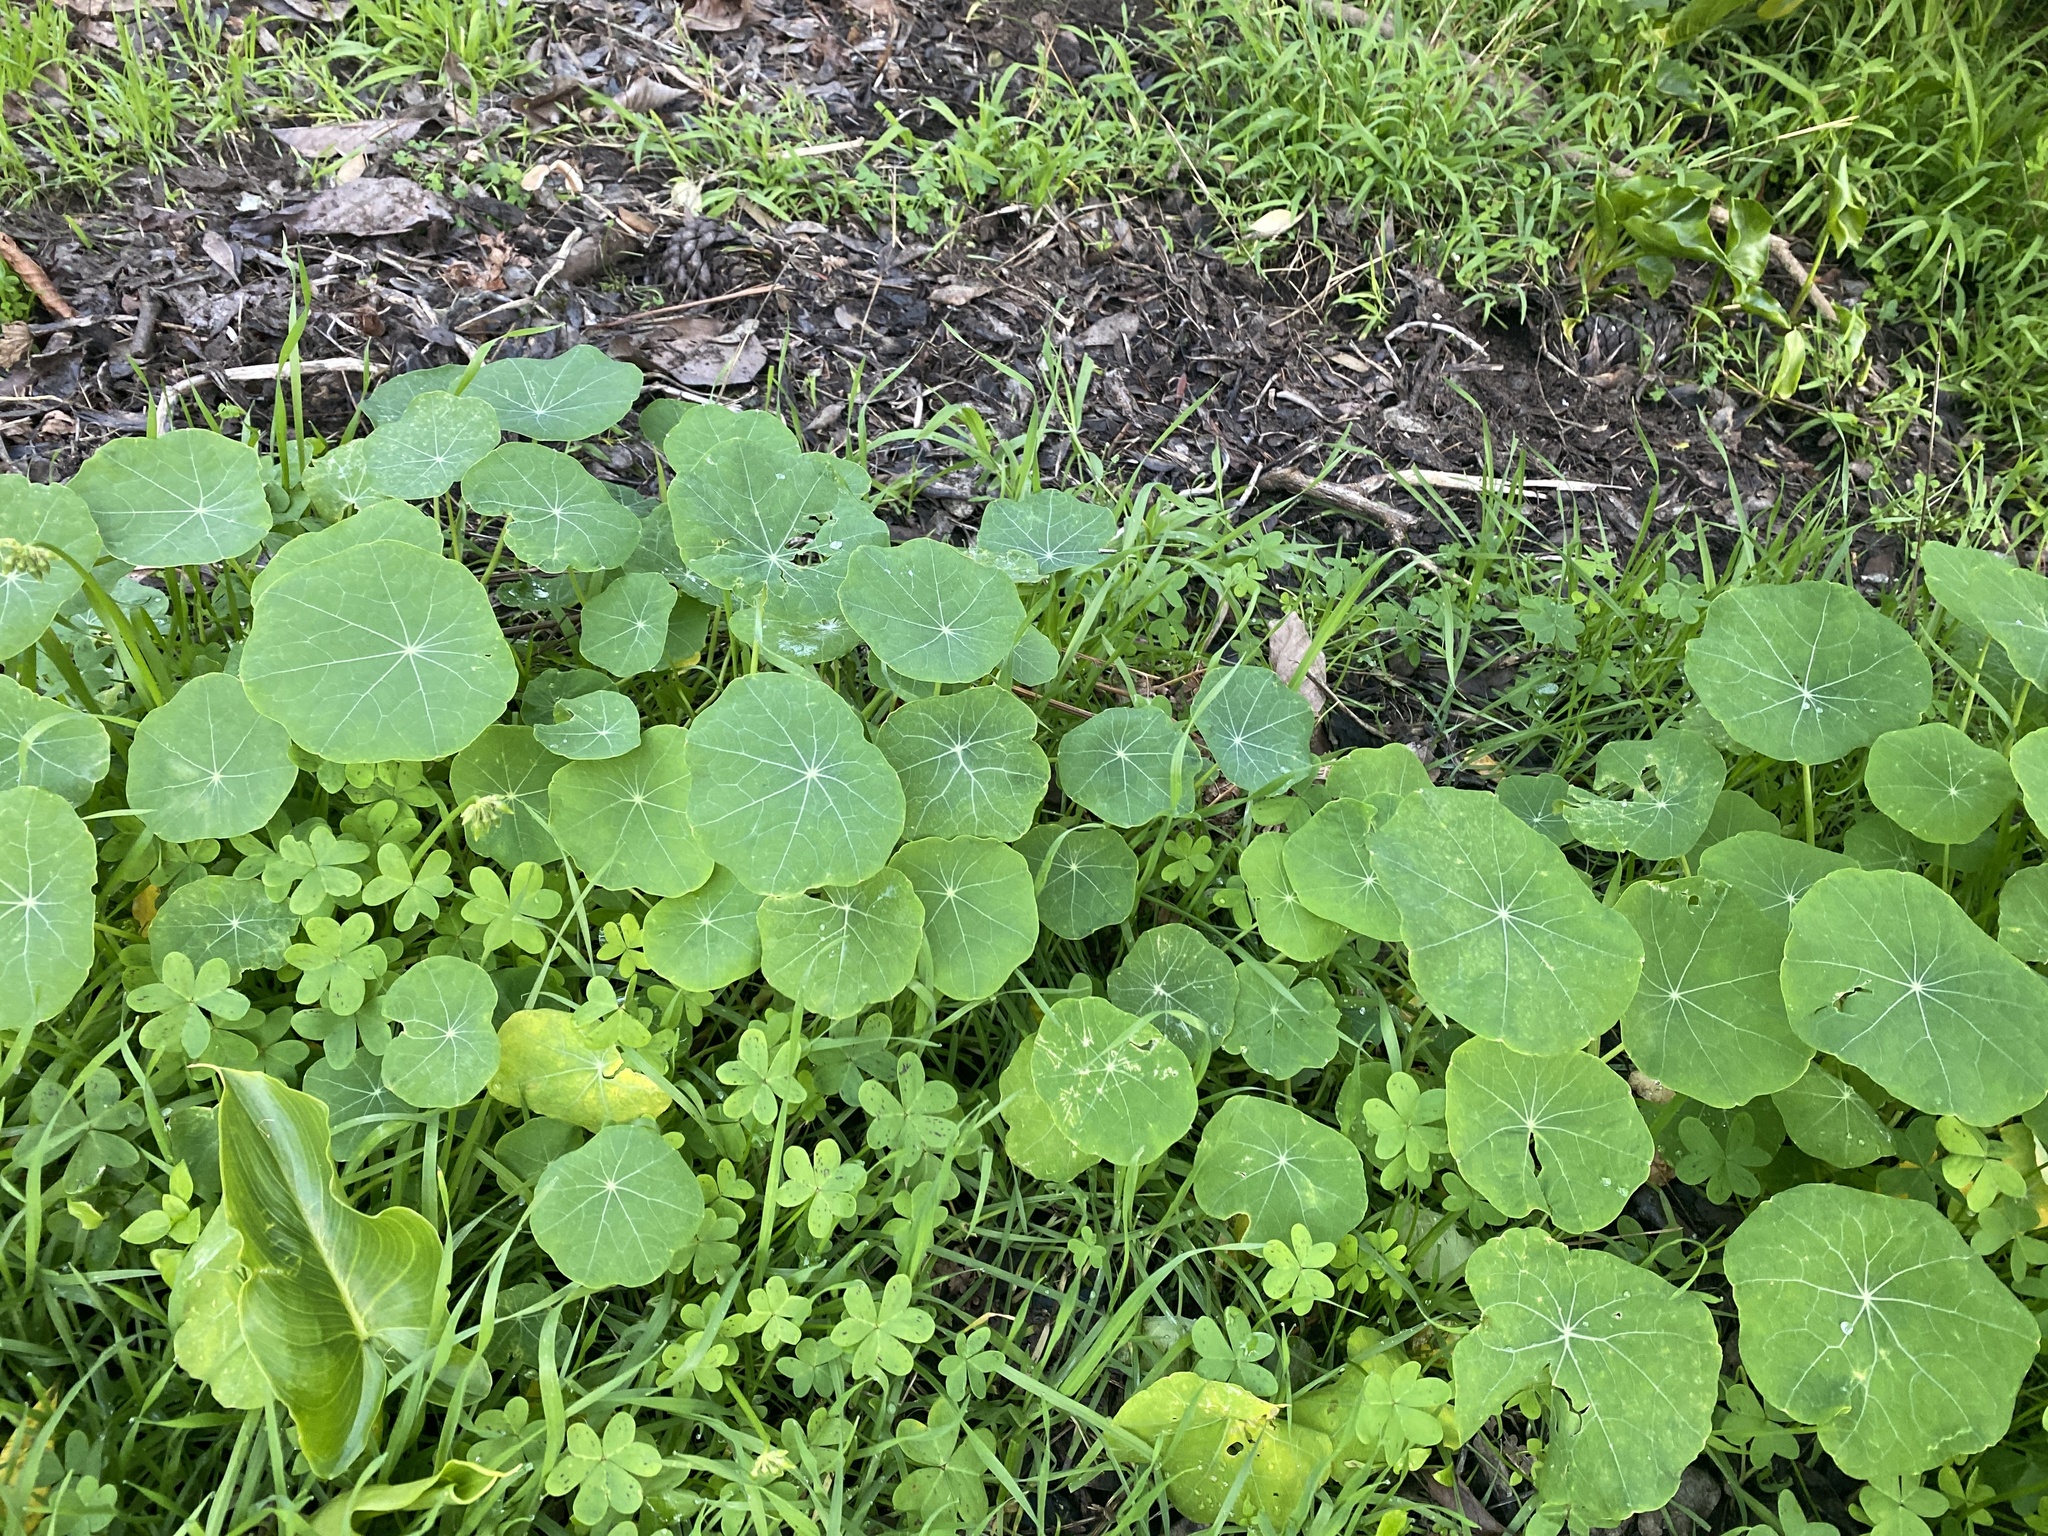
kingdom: Plantae
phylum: Tracheophyta
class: Magnoliopsida
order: Brassicales
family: Tropaeolaceae
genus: Tropaeolum
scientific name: Tropaeolum majus
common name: Nasturtium
